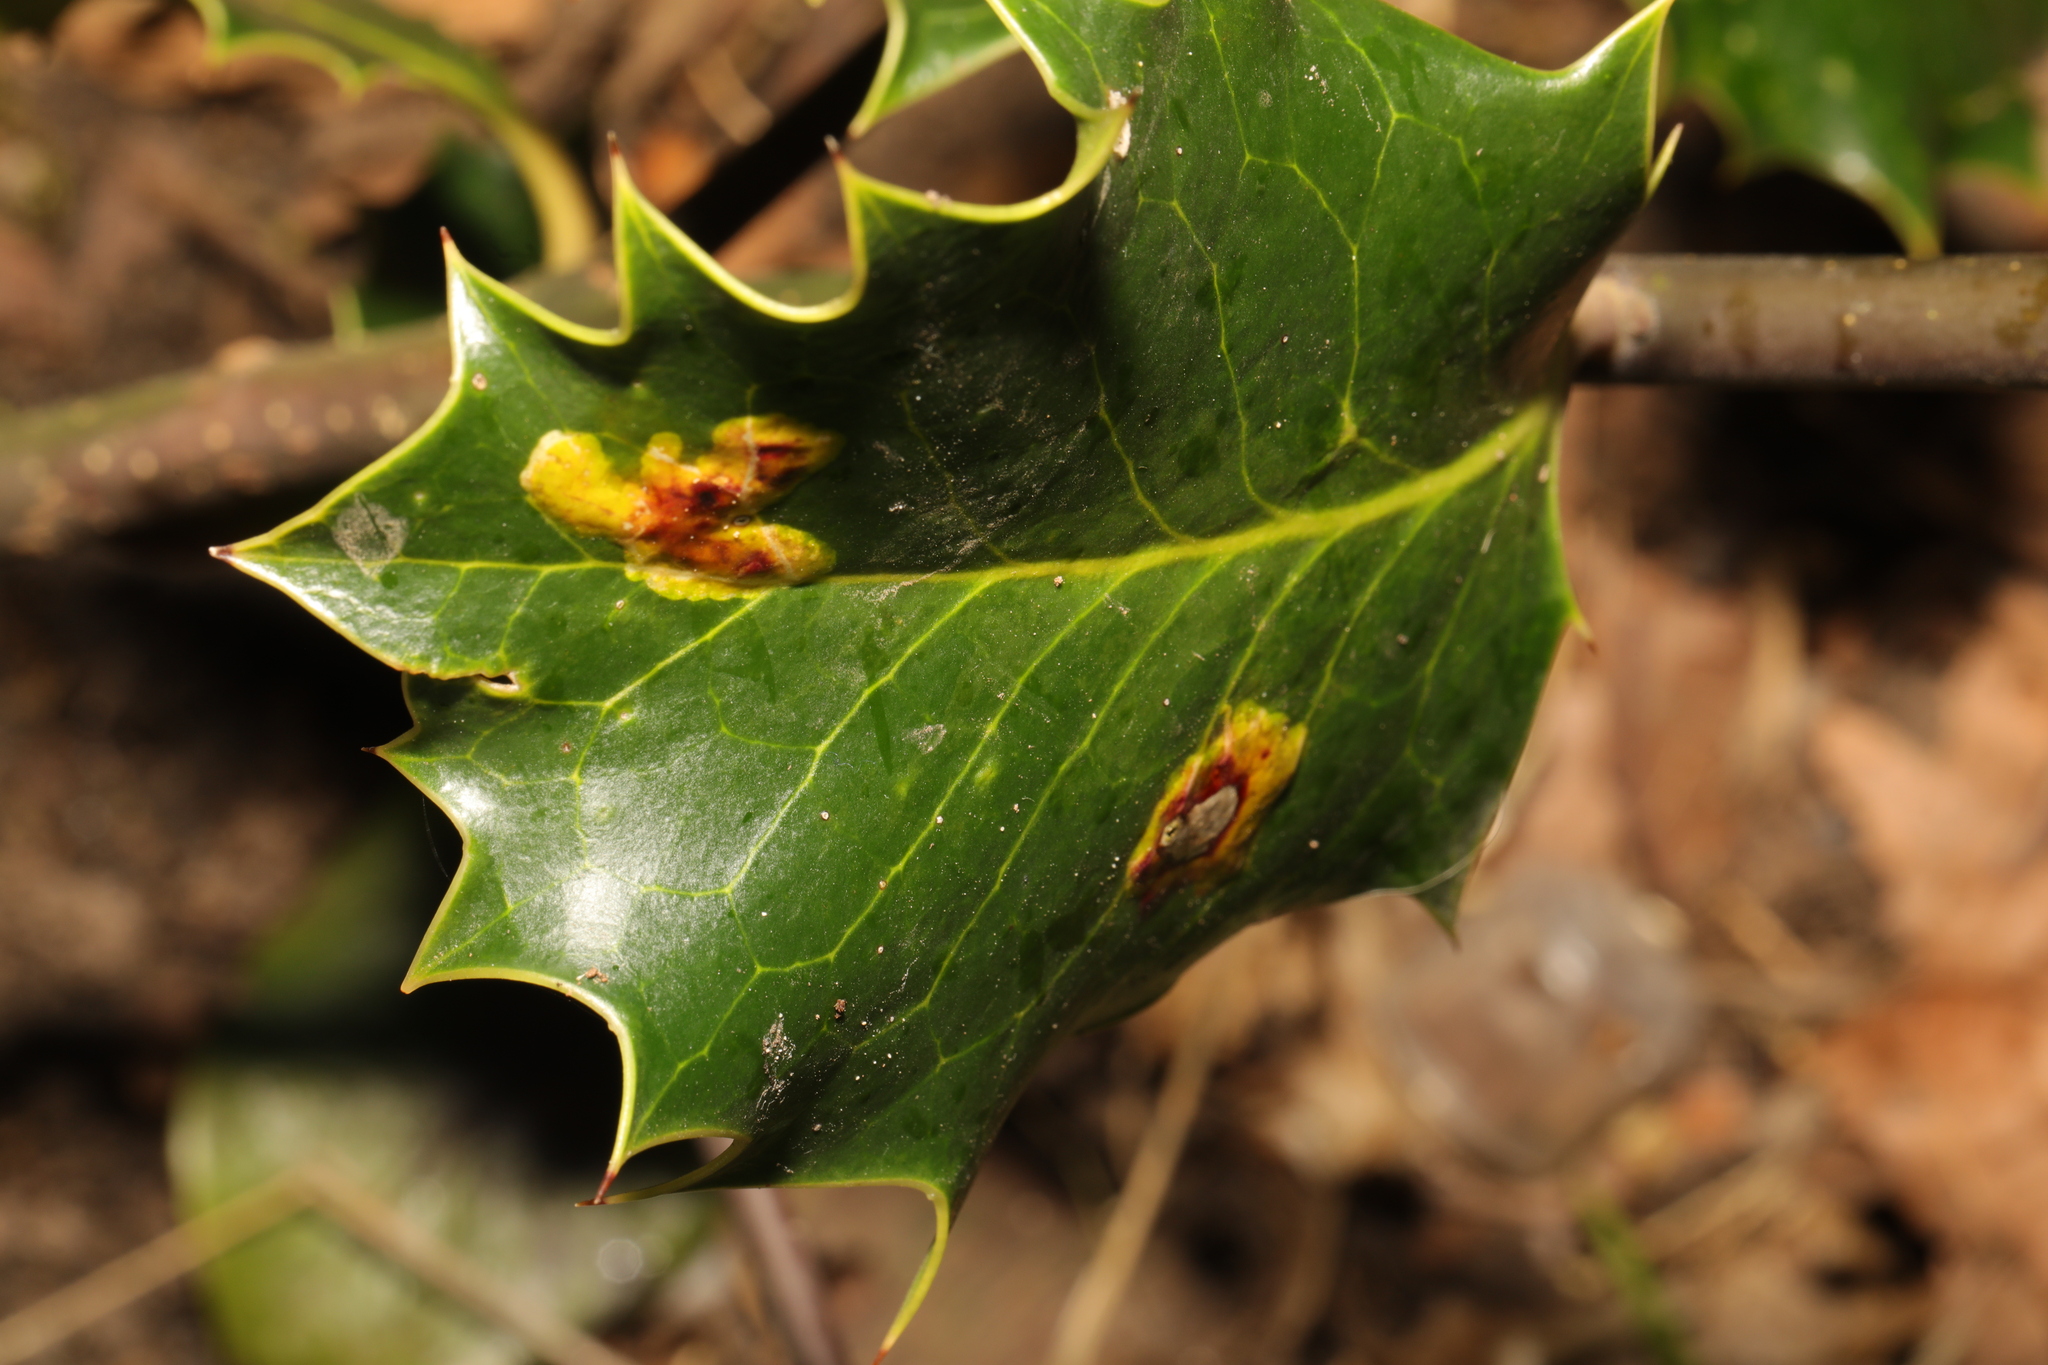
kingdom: Animalia
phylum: Arthropoda
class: Insecta
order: Diptera
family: Agromyzidae
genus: Phytomyza
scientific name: Phytomyza ilicis
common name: Holly leafminer
